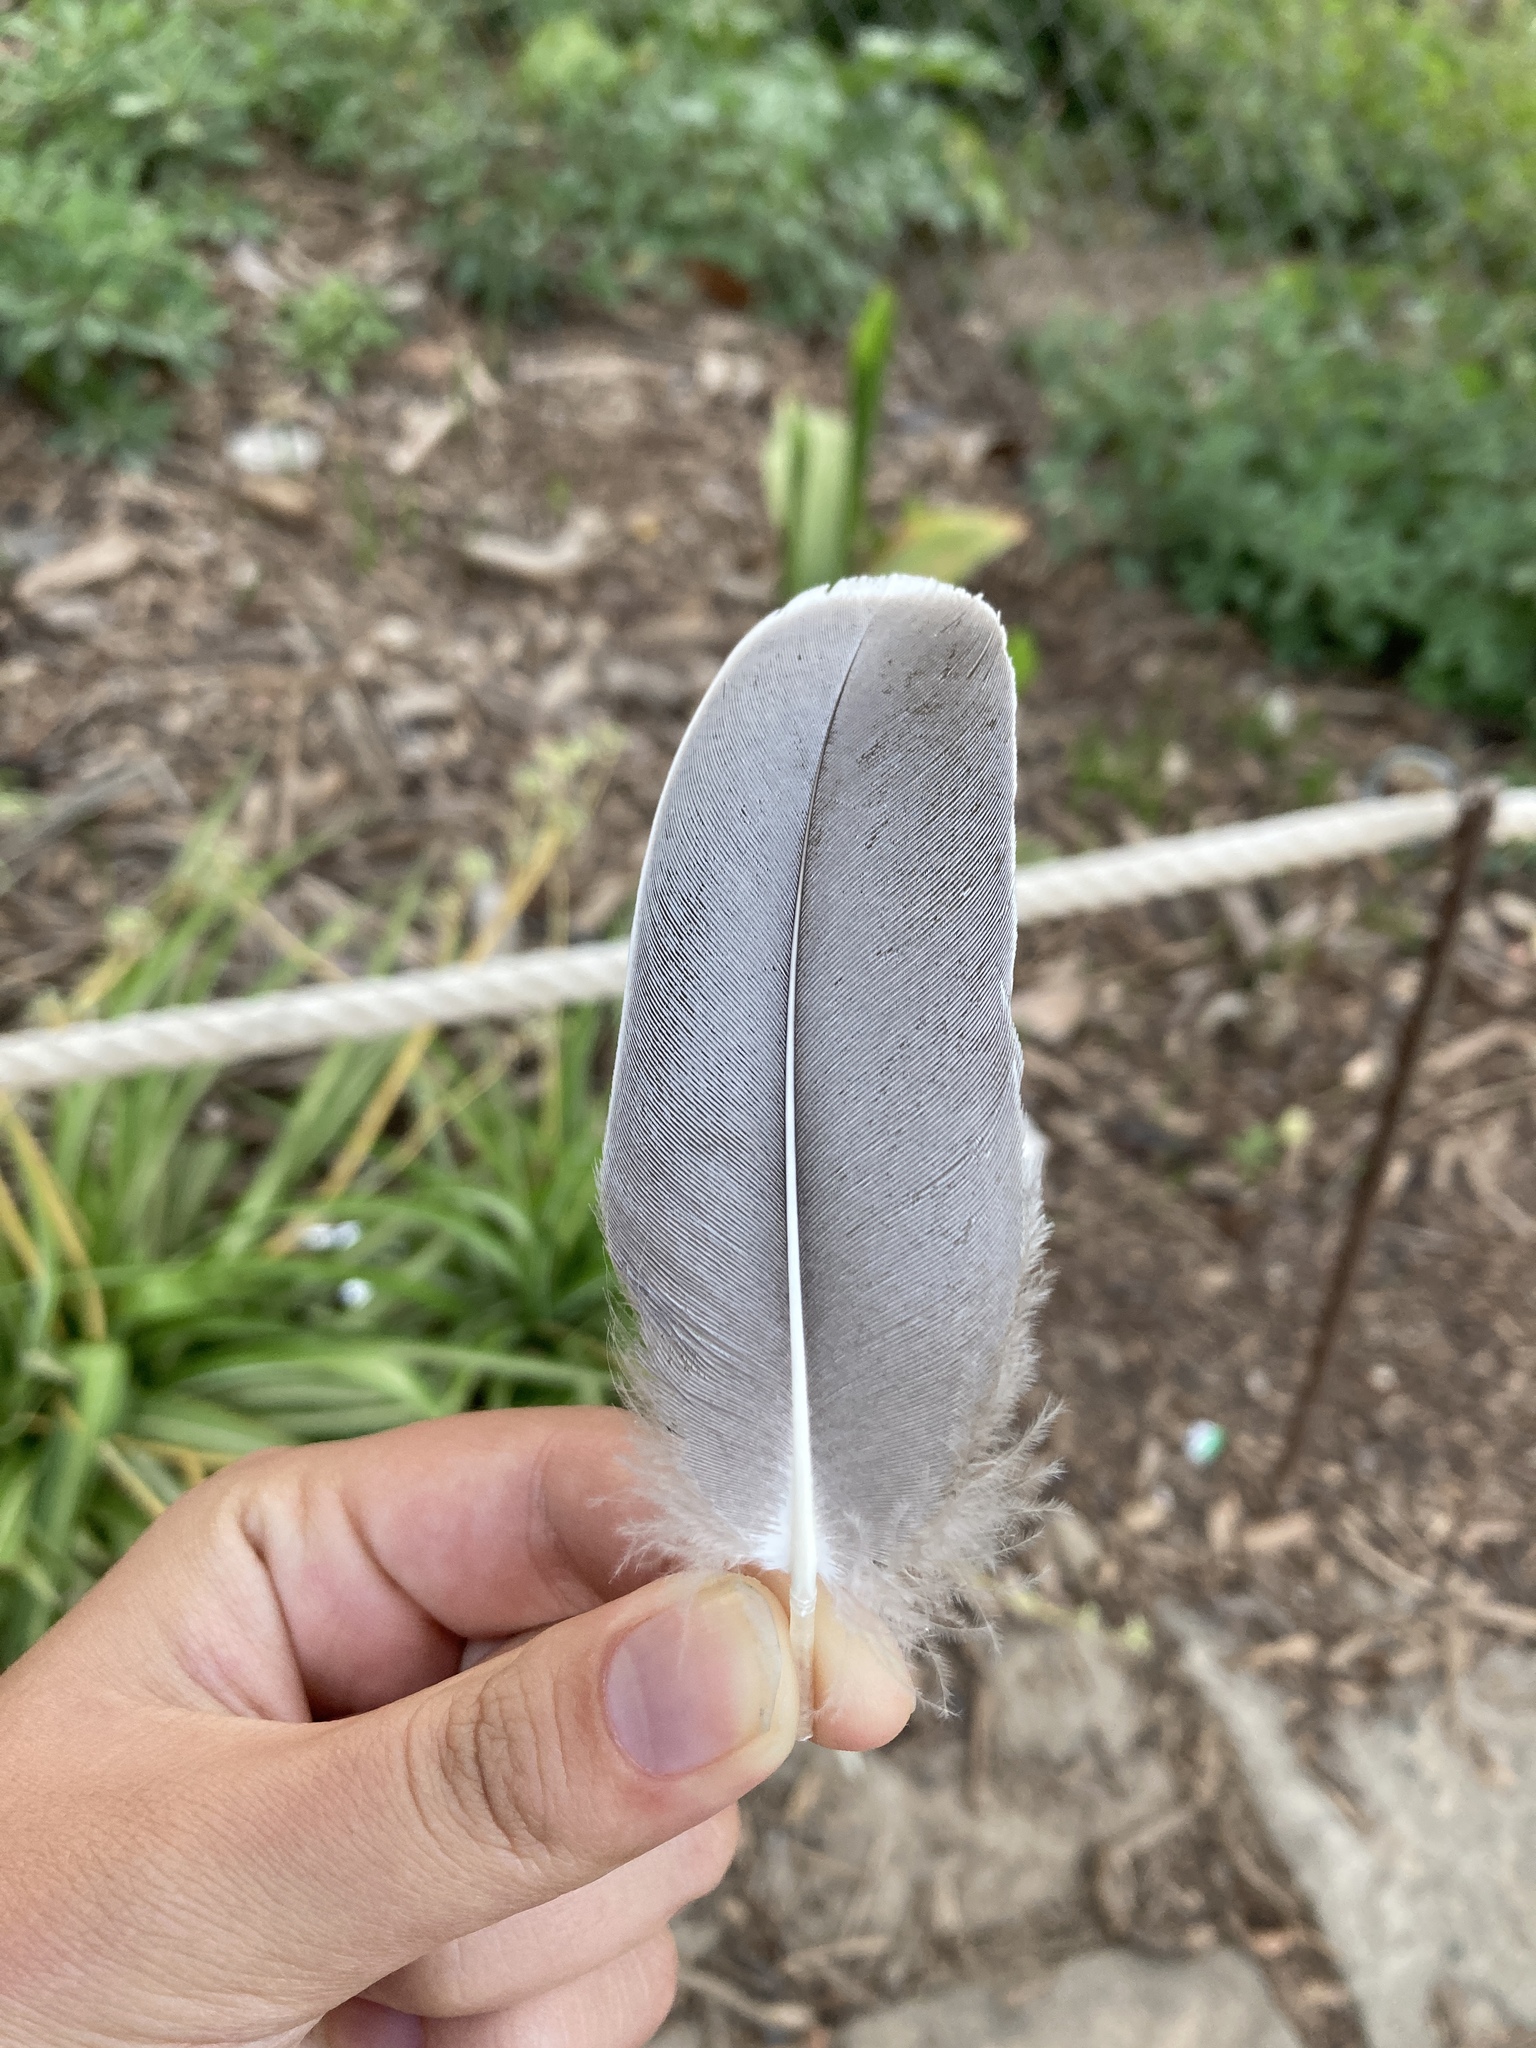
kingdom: Animalia
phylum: Chordata
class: Aves
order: Anseriformes
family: Anatidae
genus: Anser
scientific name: Anser anser
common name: Greylag goose
